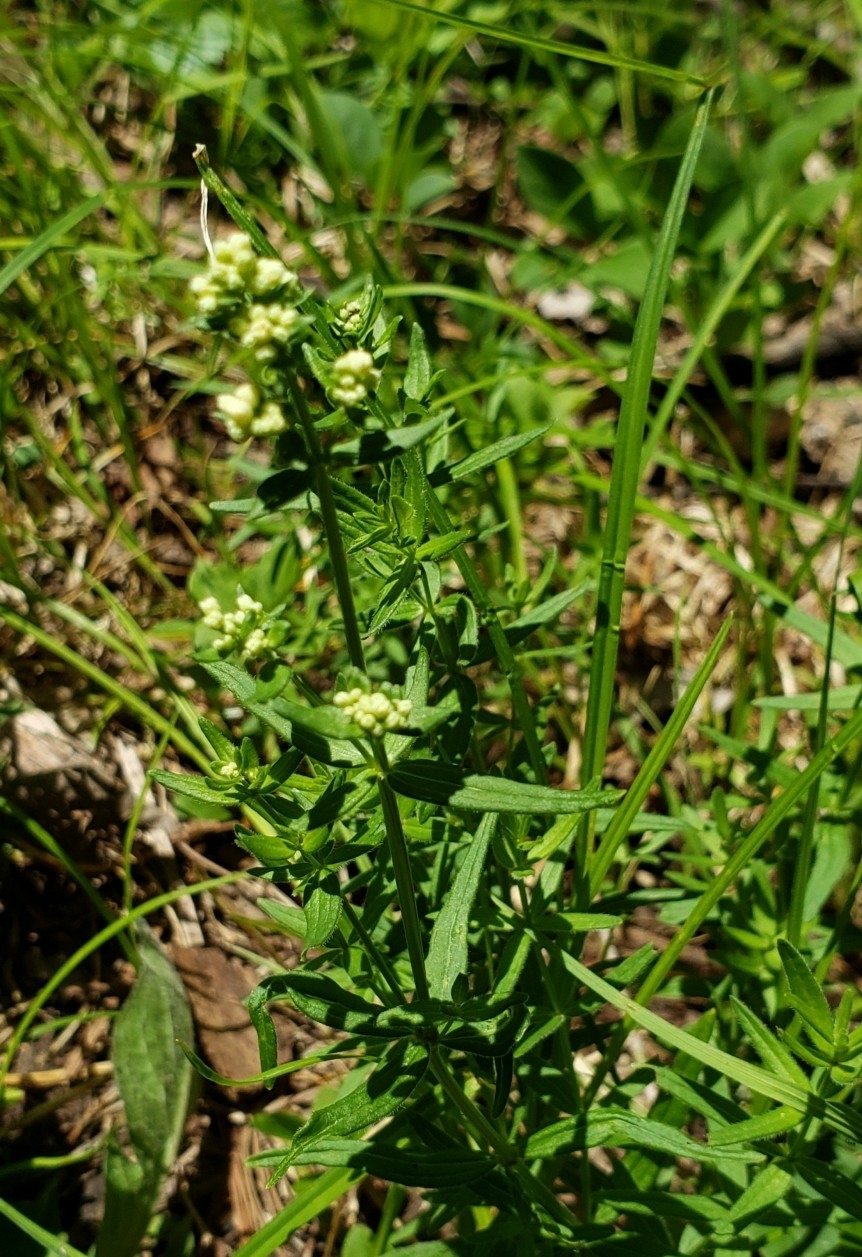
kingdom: Plantae
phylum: Tracheophyta
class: Magnoliopsida
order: Gentianales
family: Rubiaceae
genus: Galium
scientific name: Galium boreale
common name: Northern bedstraw
